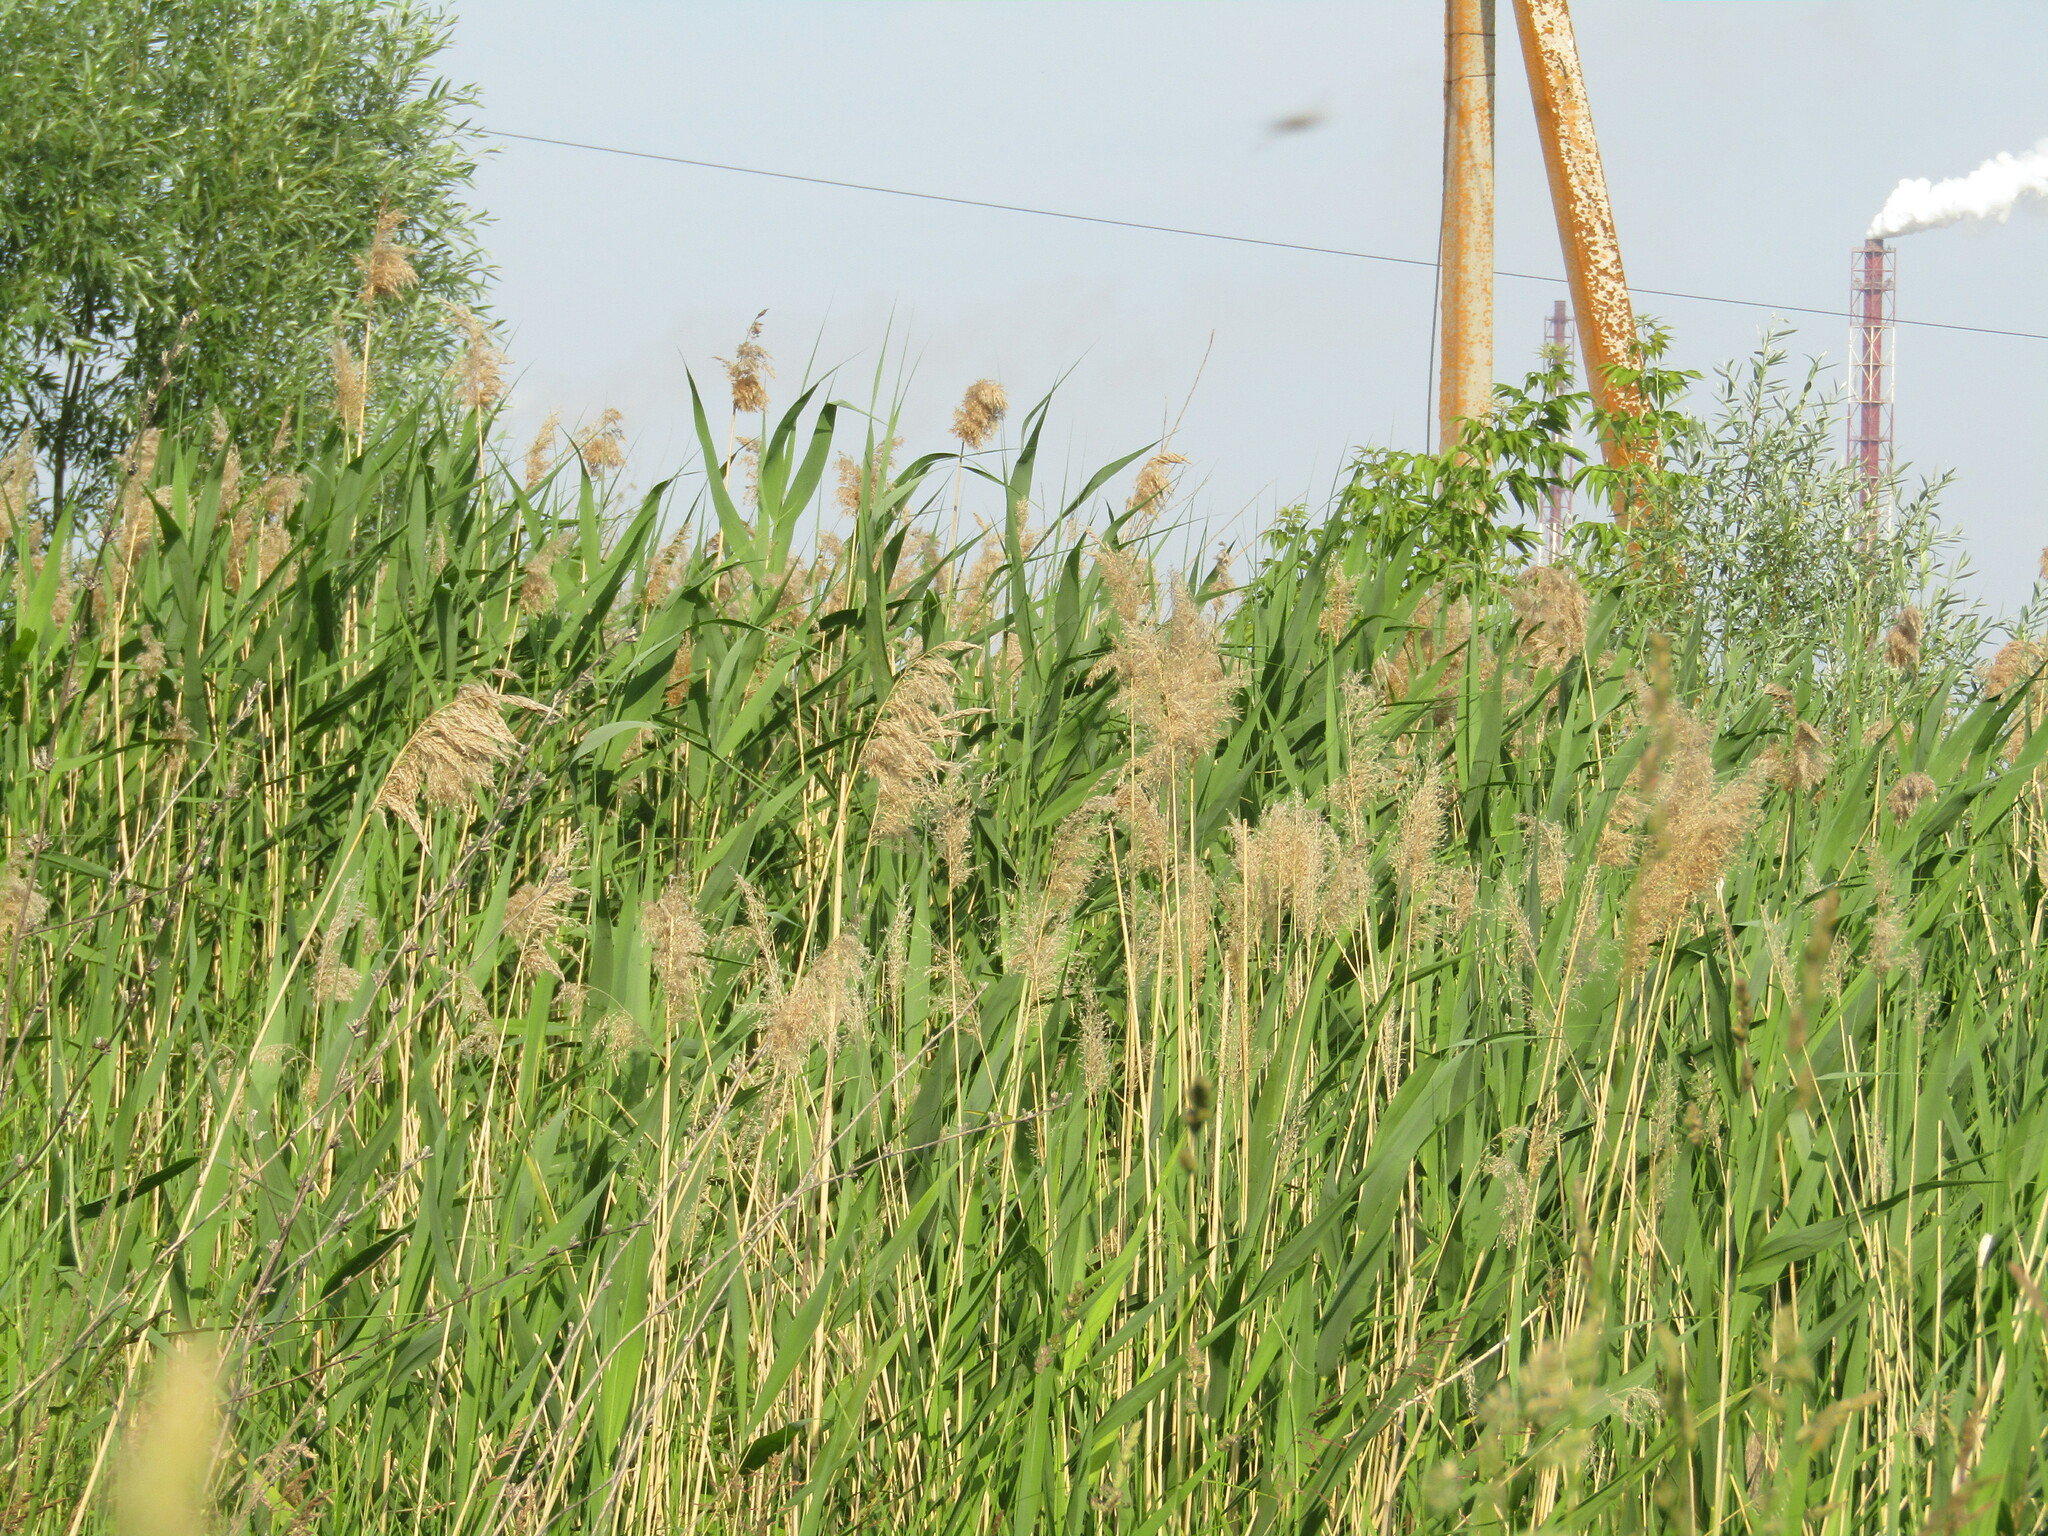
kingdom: Plantae
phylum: Tracheophyta
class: Liliopsida
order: Poales
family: Poaceae
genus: Phragmites
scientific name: Phragmites australis
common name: Common reed
